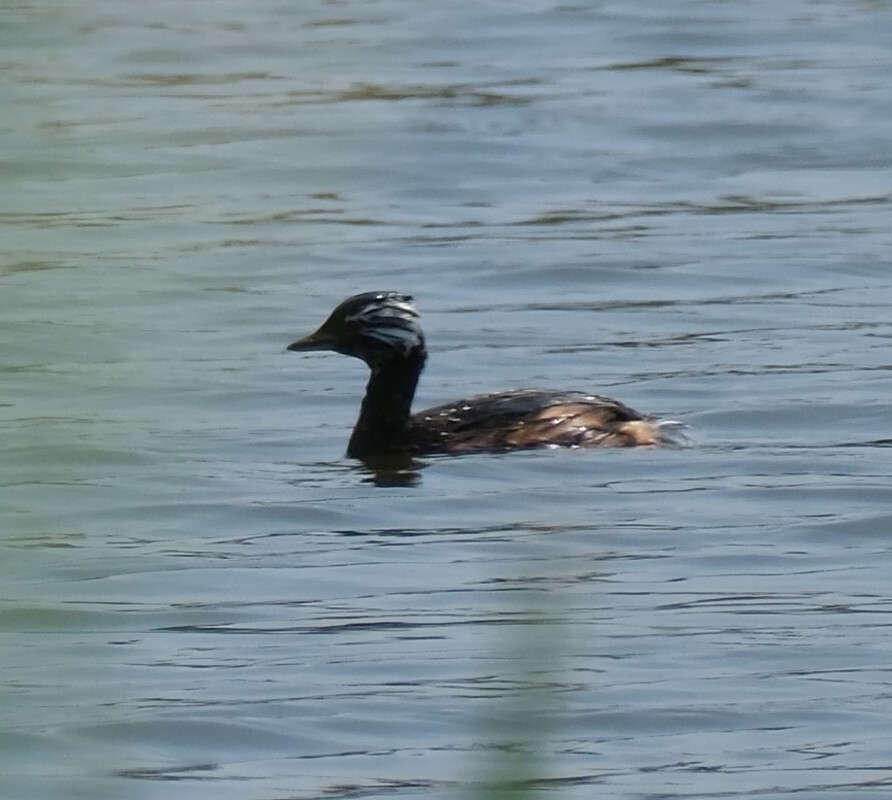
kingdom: Animalia
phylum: Chordata
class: Aves
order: Podicipediformes
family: Podicipedidae
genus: Rollandia
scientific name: Rollandia rolland
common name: White-tufted grebe
